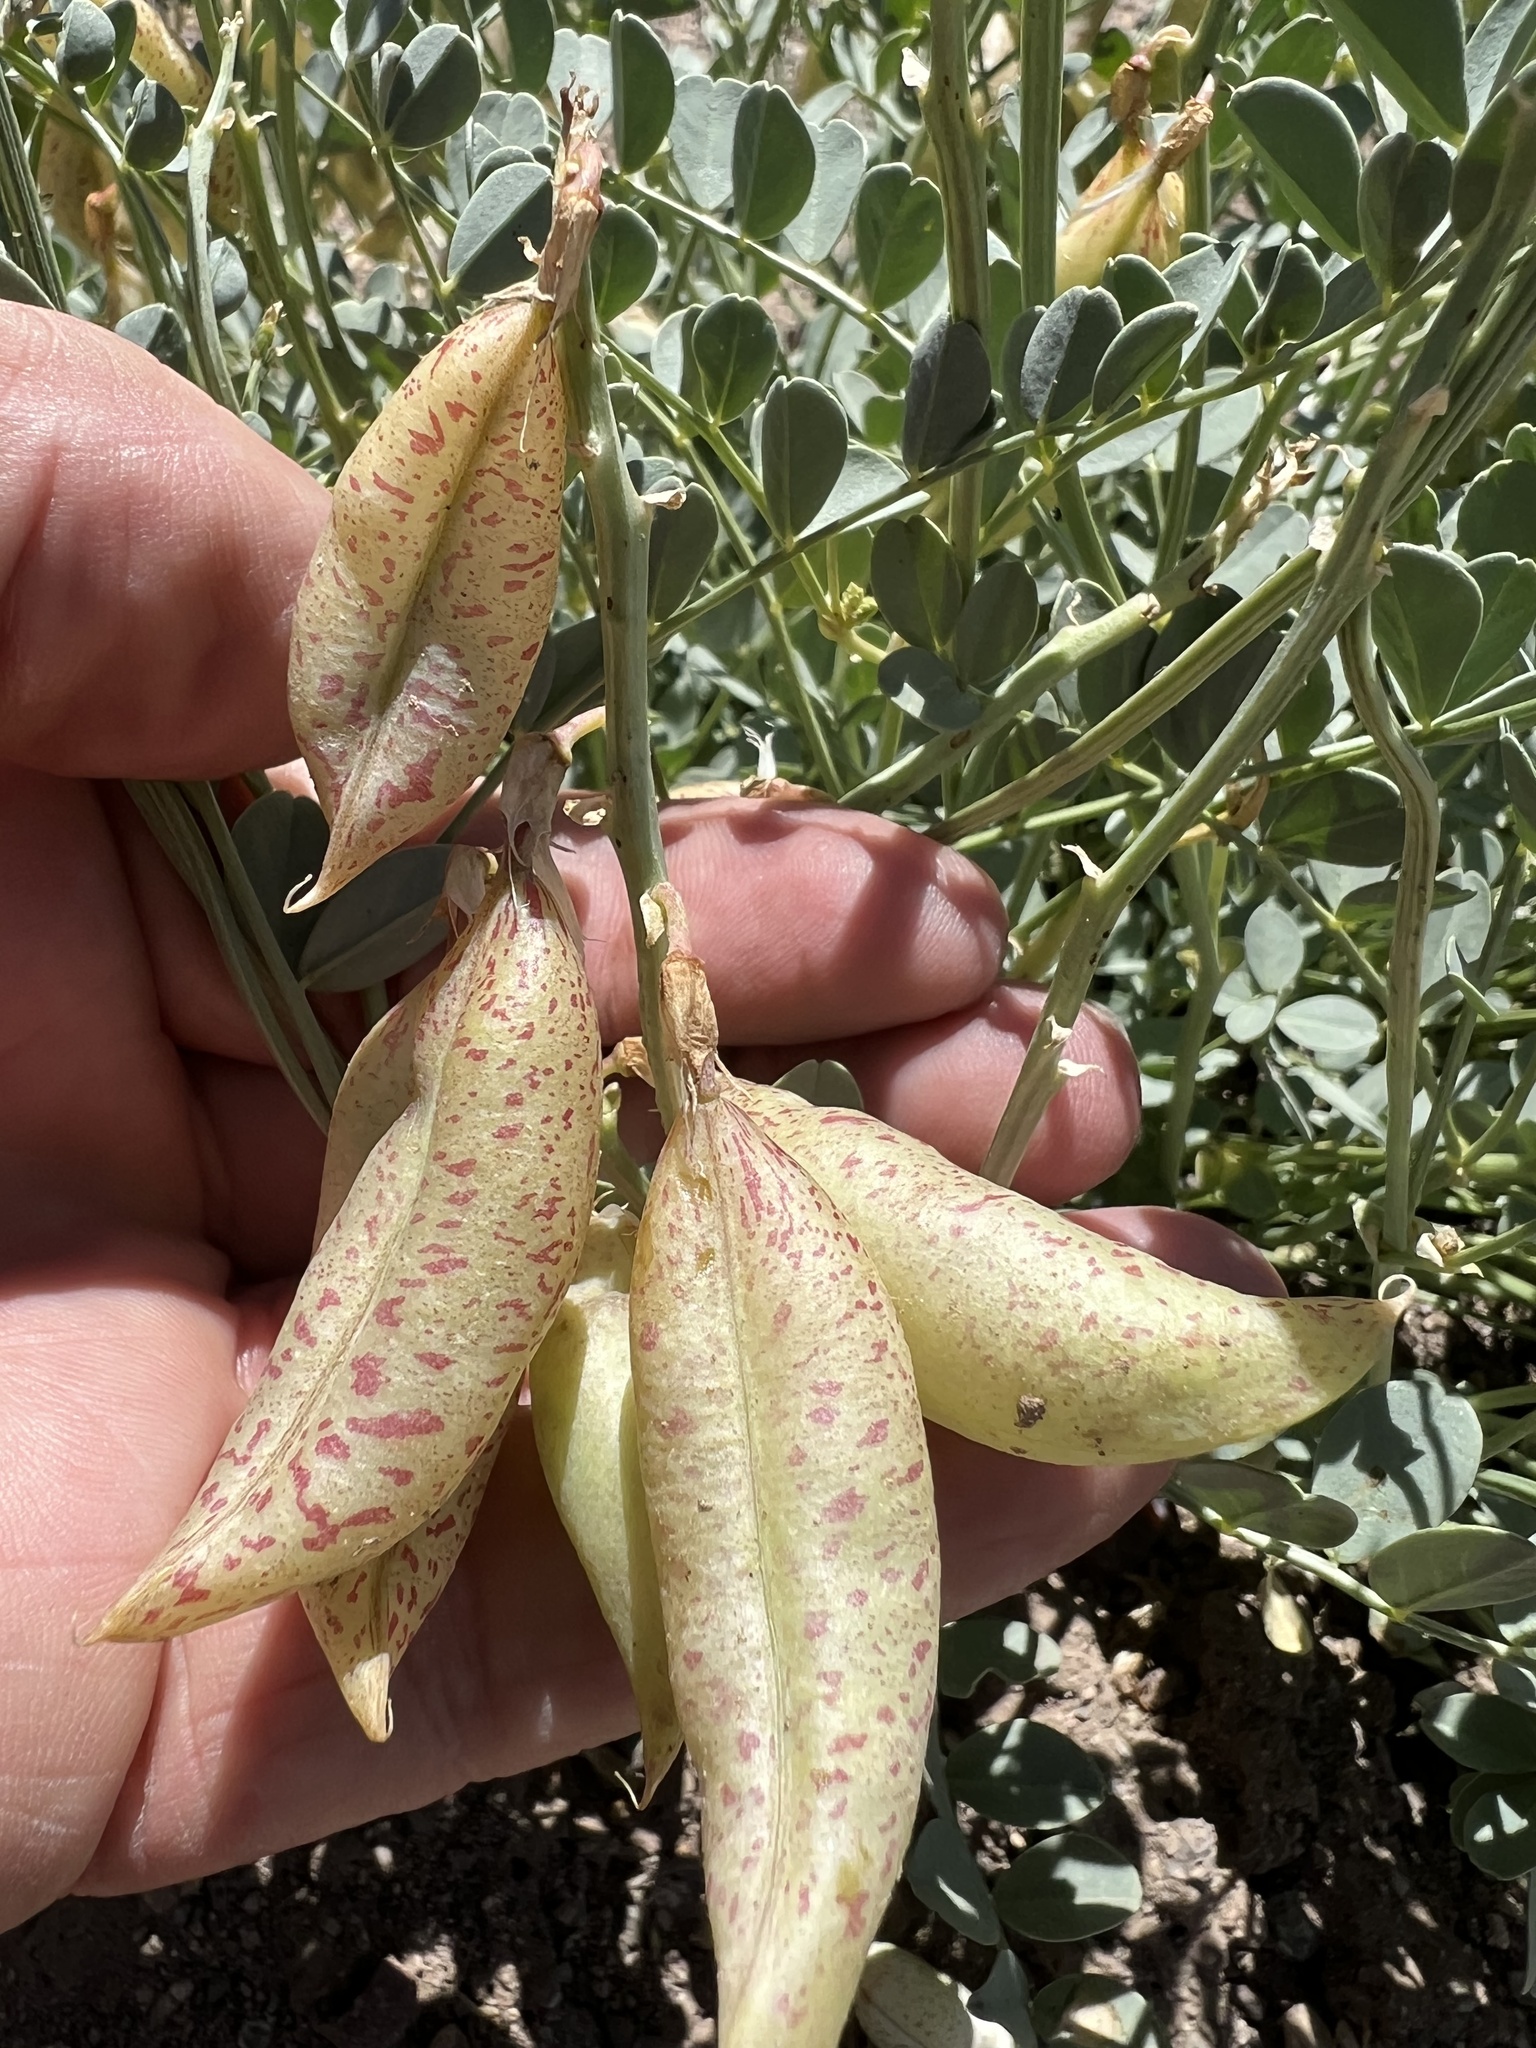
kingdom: Plantae
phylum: Tracheophyta
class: Magnoliopsida
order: Fabales
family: Fabaceae
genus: Astragalus
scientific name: Astragalus oophorus
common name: Egg milkvetch
